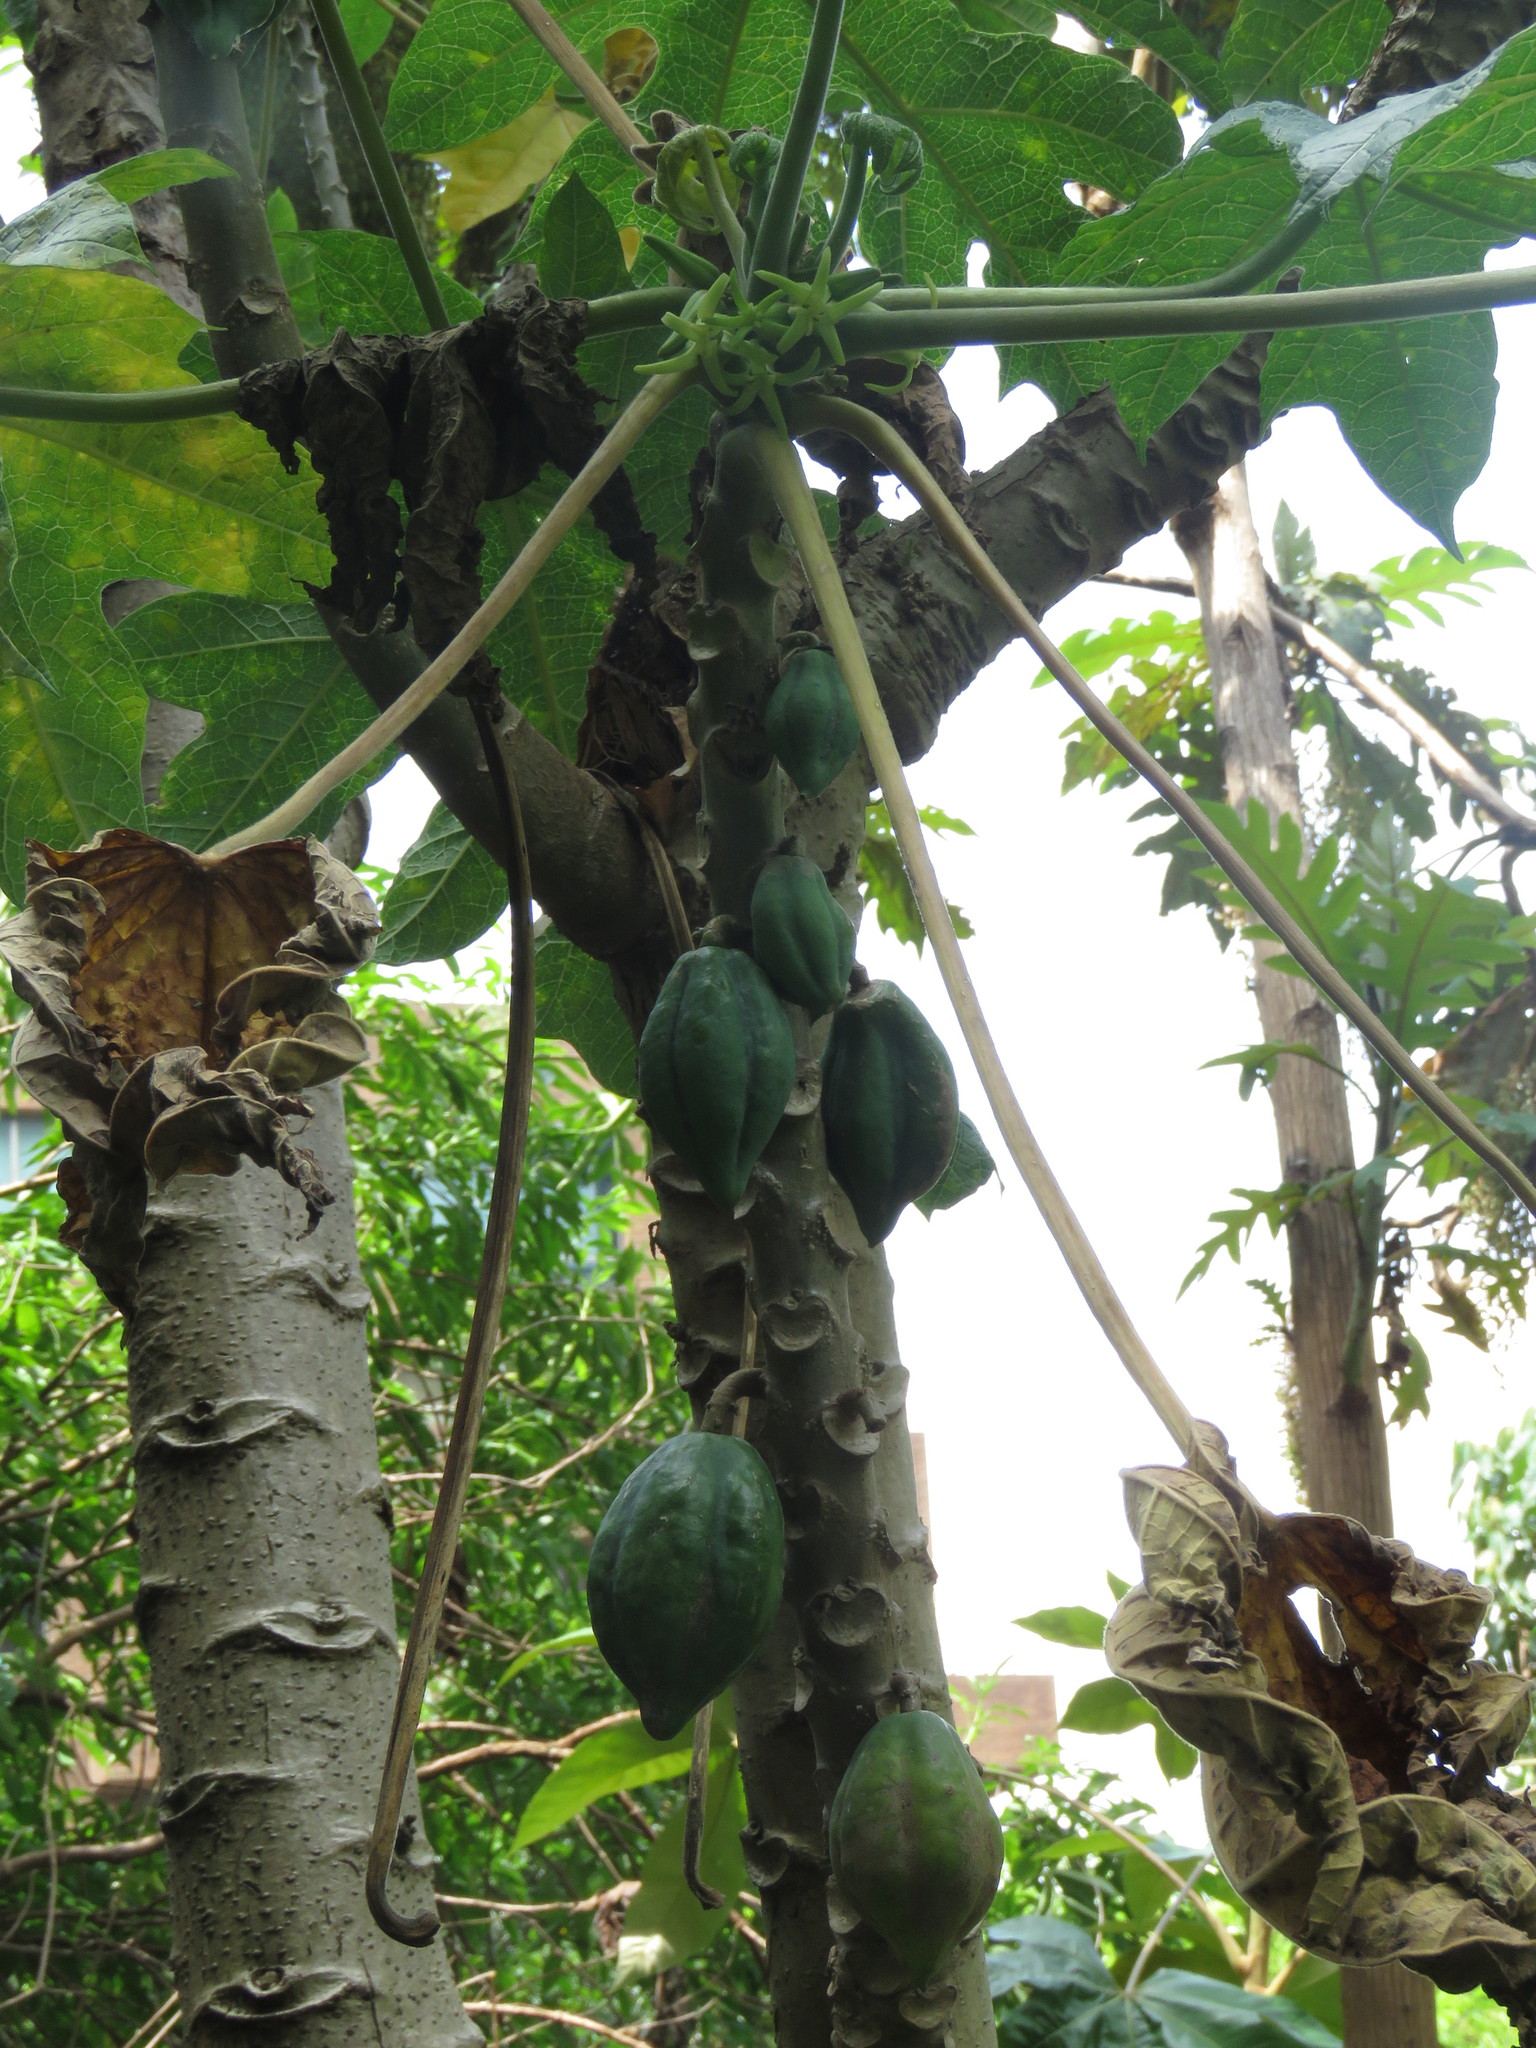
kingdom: Plantae
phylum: Tracheophyta
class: Magnoliopsida
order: Brassicales
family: Caricaceae
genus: Vasconcellea
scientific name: Vasconcellea pubescens
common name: Mountain papaya
